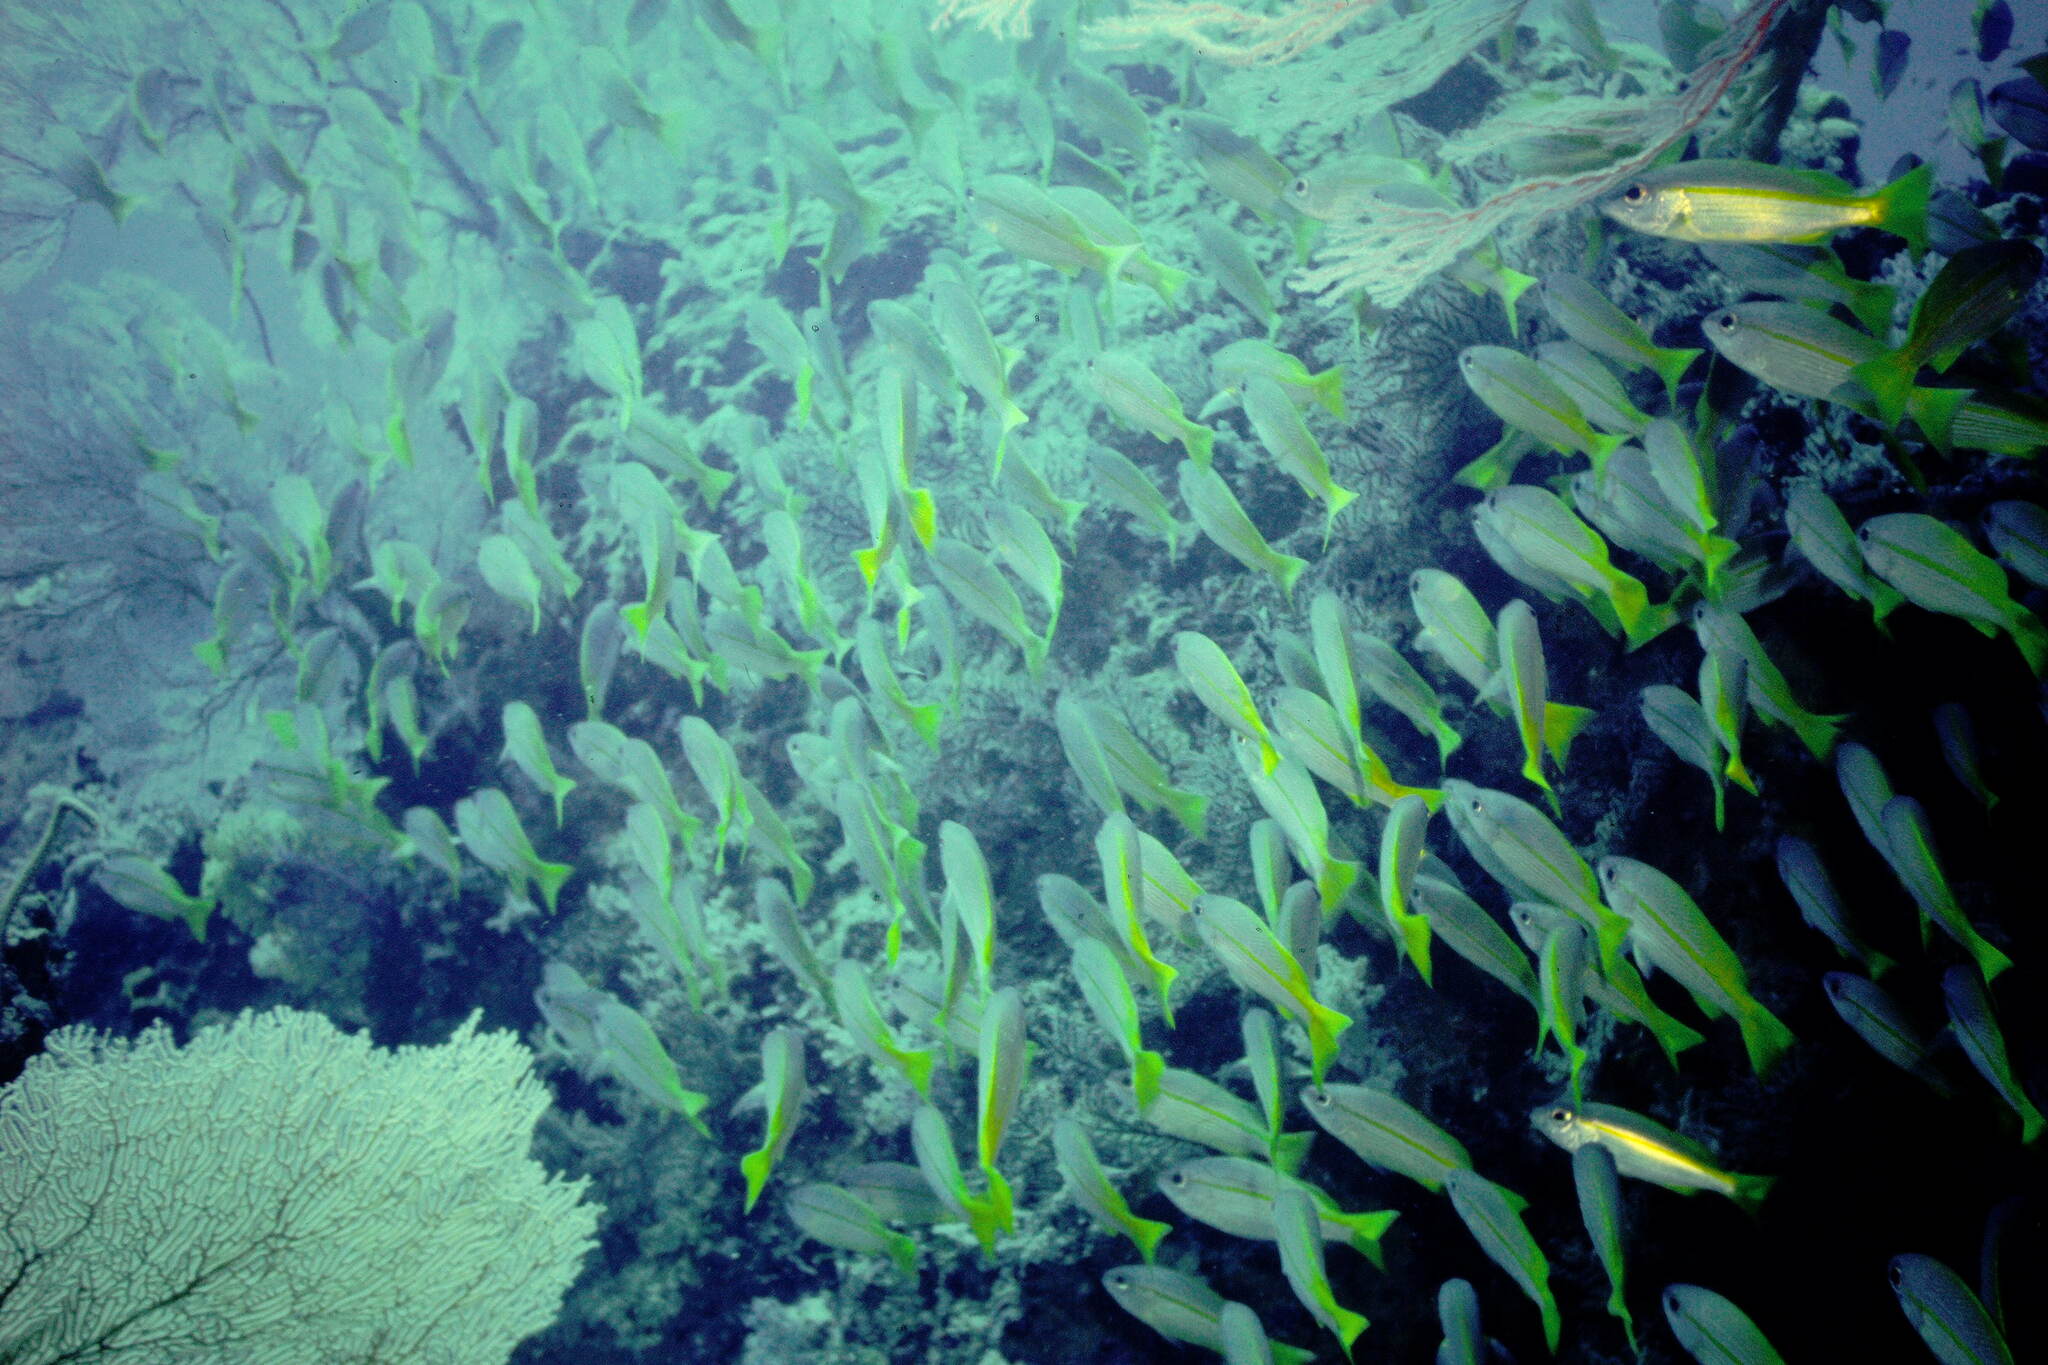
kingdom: Animalia
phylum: Chordata
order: Perciformes
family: Lutjanidae
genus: Lutjanus
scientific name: Lutjanus lutjanus
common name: Bigeye snapper
